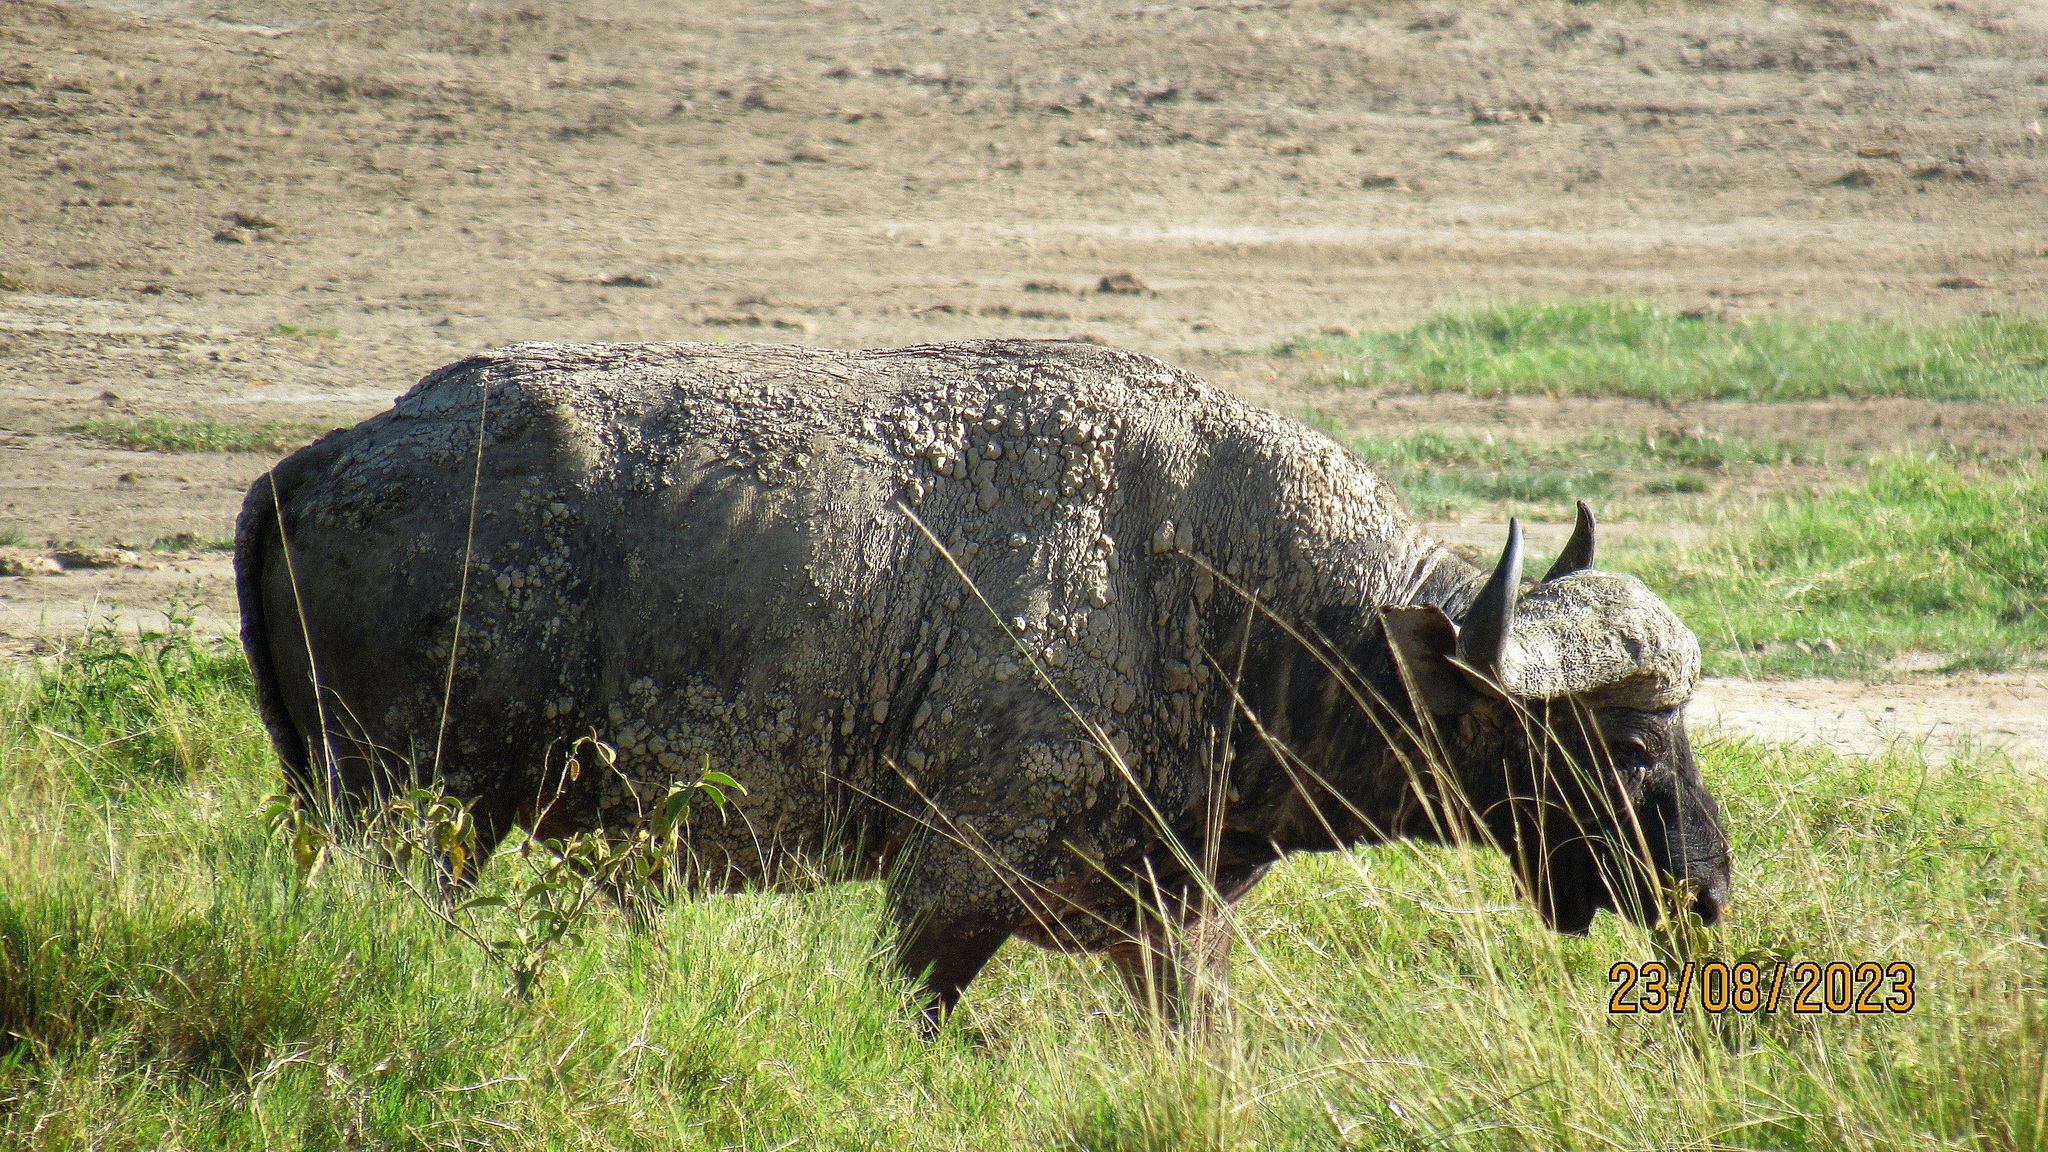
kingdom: Animalia
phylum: Chordata
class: Mammalia
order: Artiodactyla
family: Bovidae
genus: Syncerus
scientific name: Syncerus caffer
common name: African buffalo
